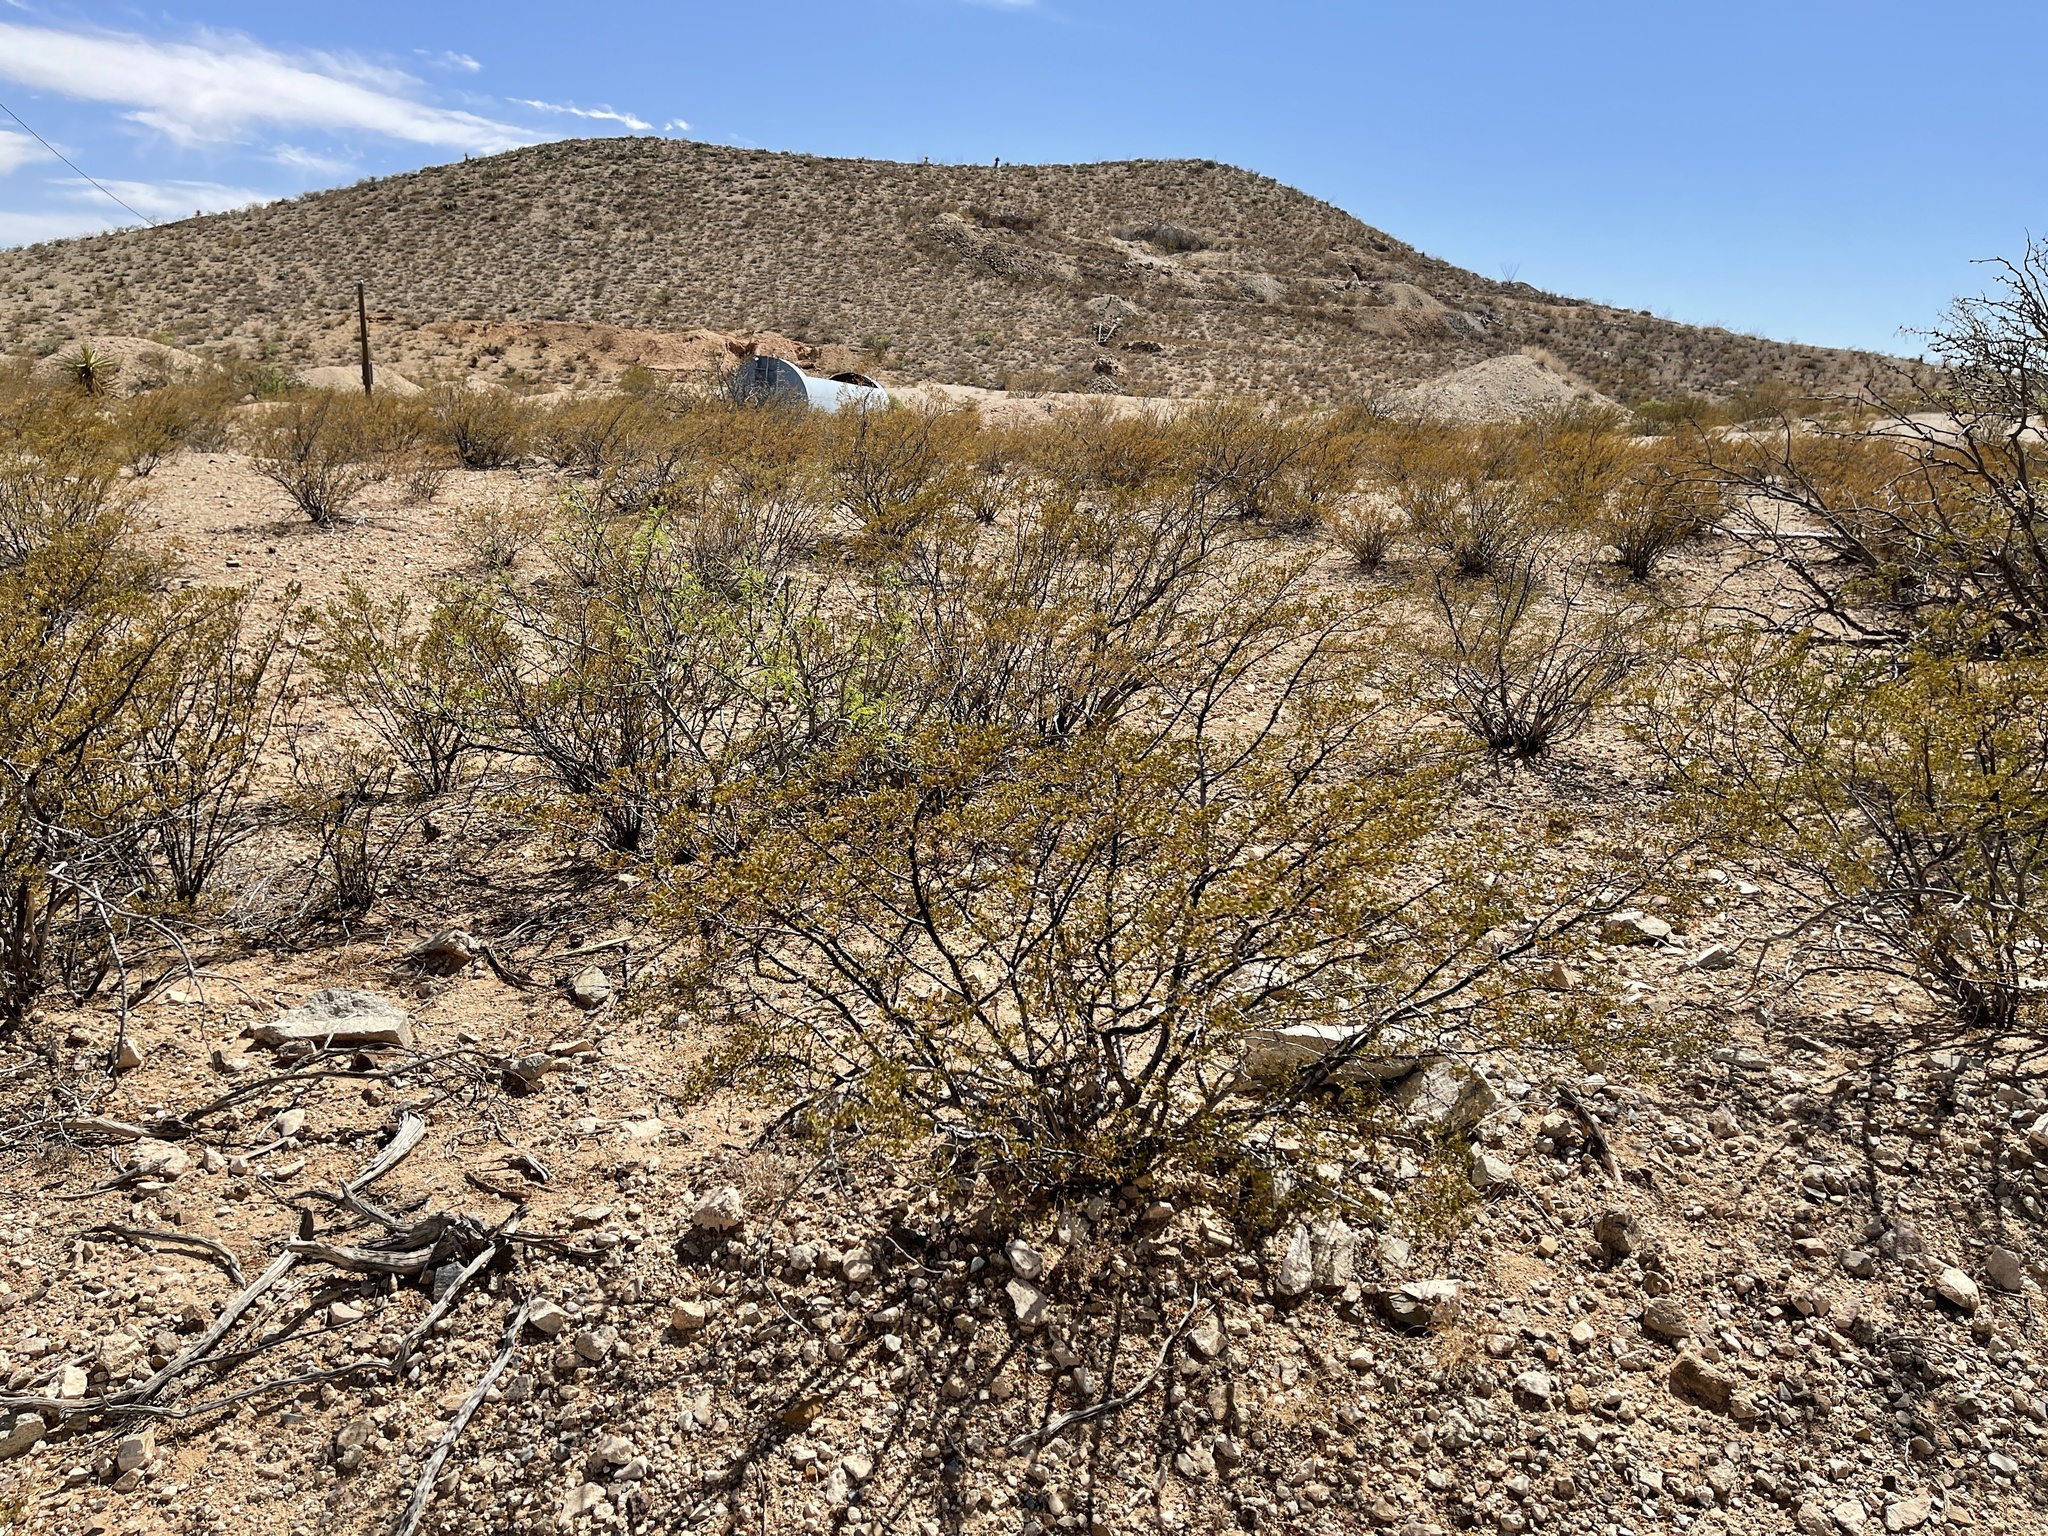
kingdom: Plantae
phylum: Tracheophyta
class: Magnoliopsida
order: Zygophyllales
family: Zygophyllaceae
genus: Larrea
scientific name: Larrea tridentata
